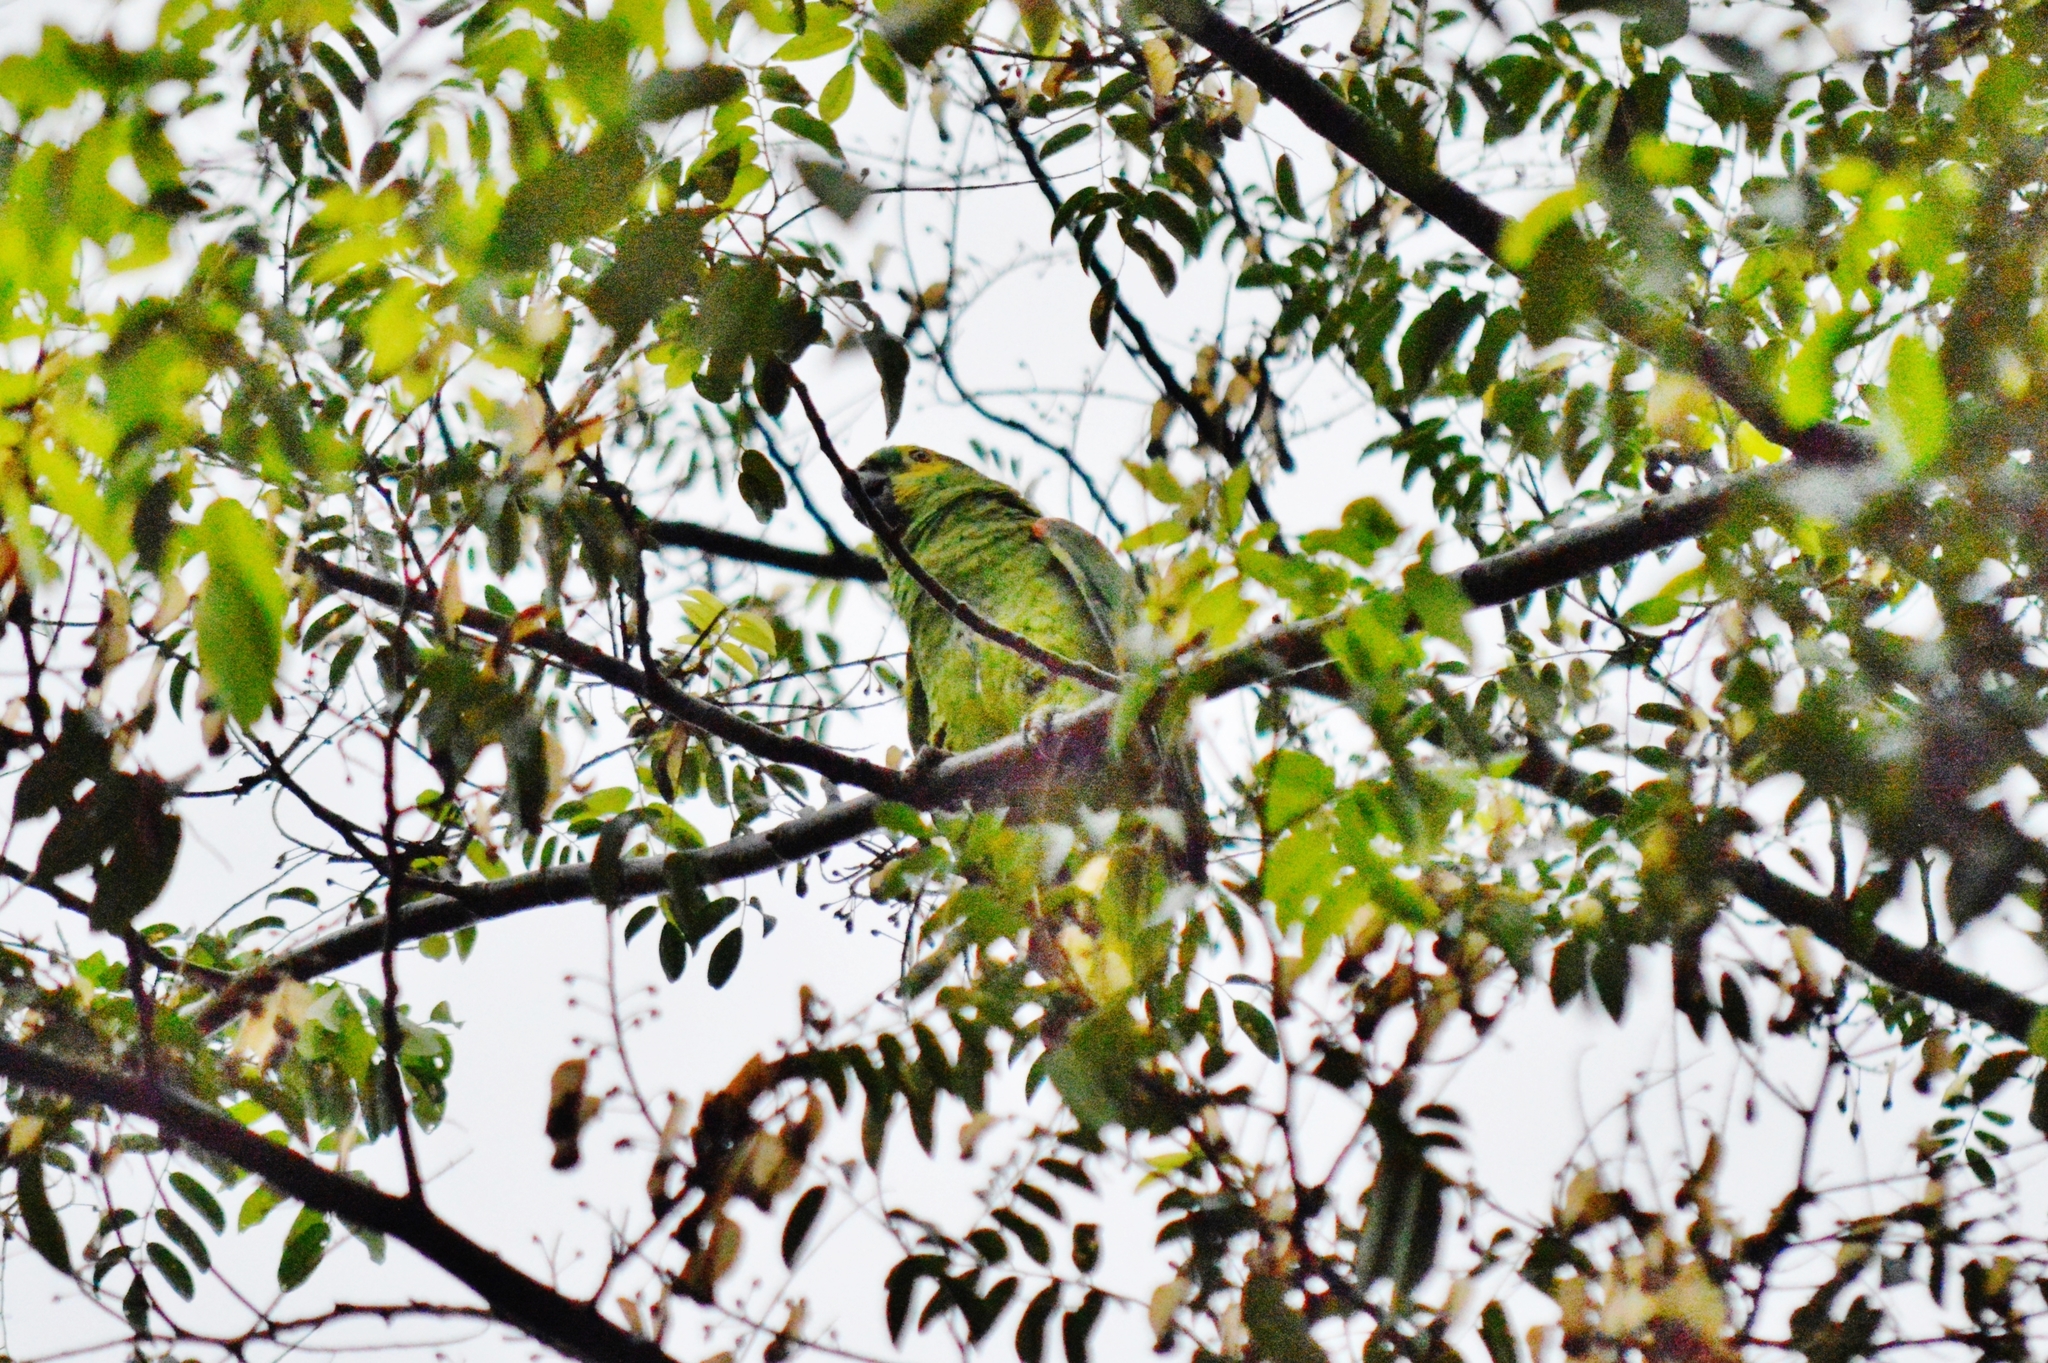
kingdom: Animalia
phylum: Chordata
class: Aves
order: Psittaciformes
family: Psittacidae
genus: Amazona
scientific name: Amazona aestiva
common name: Turquoise-fronted amazon
